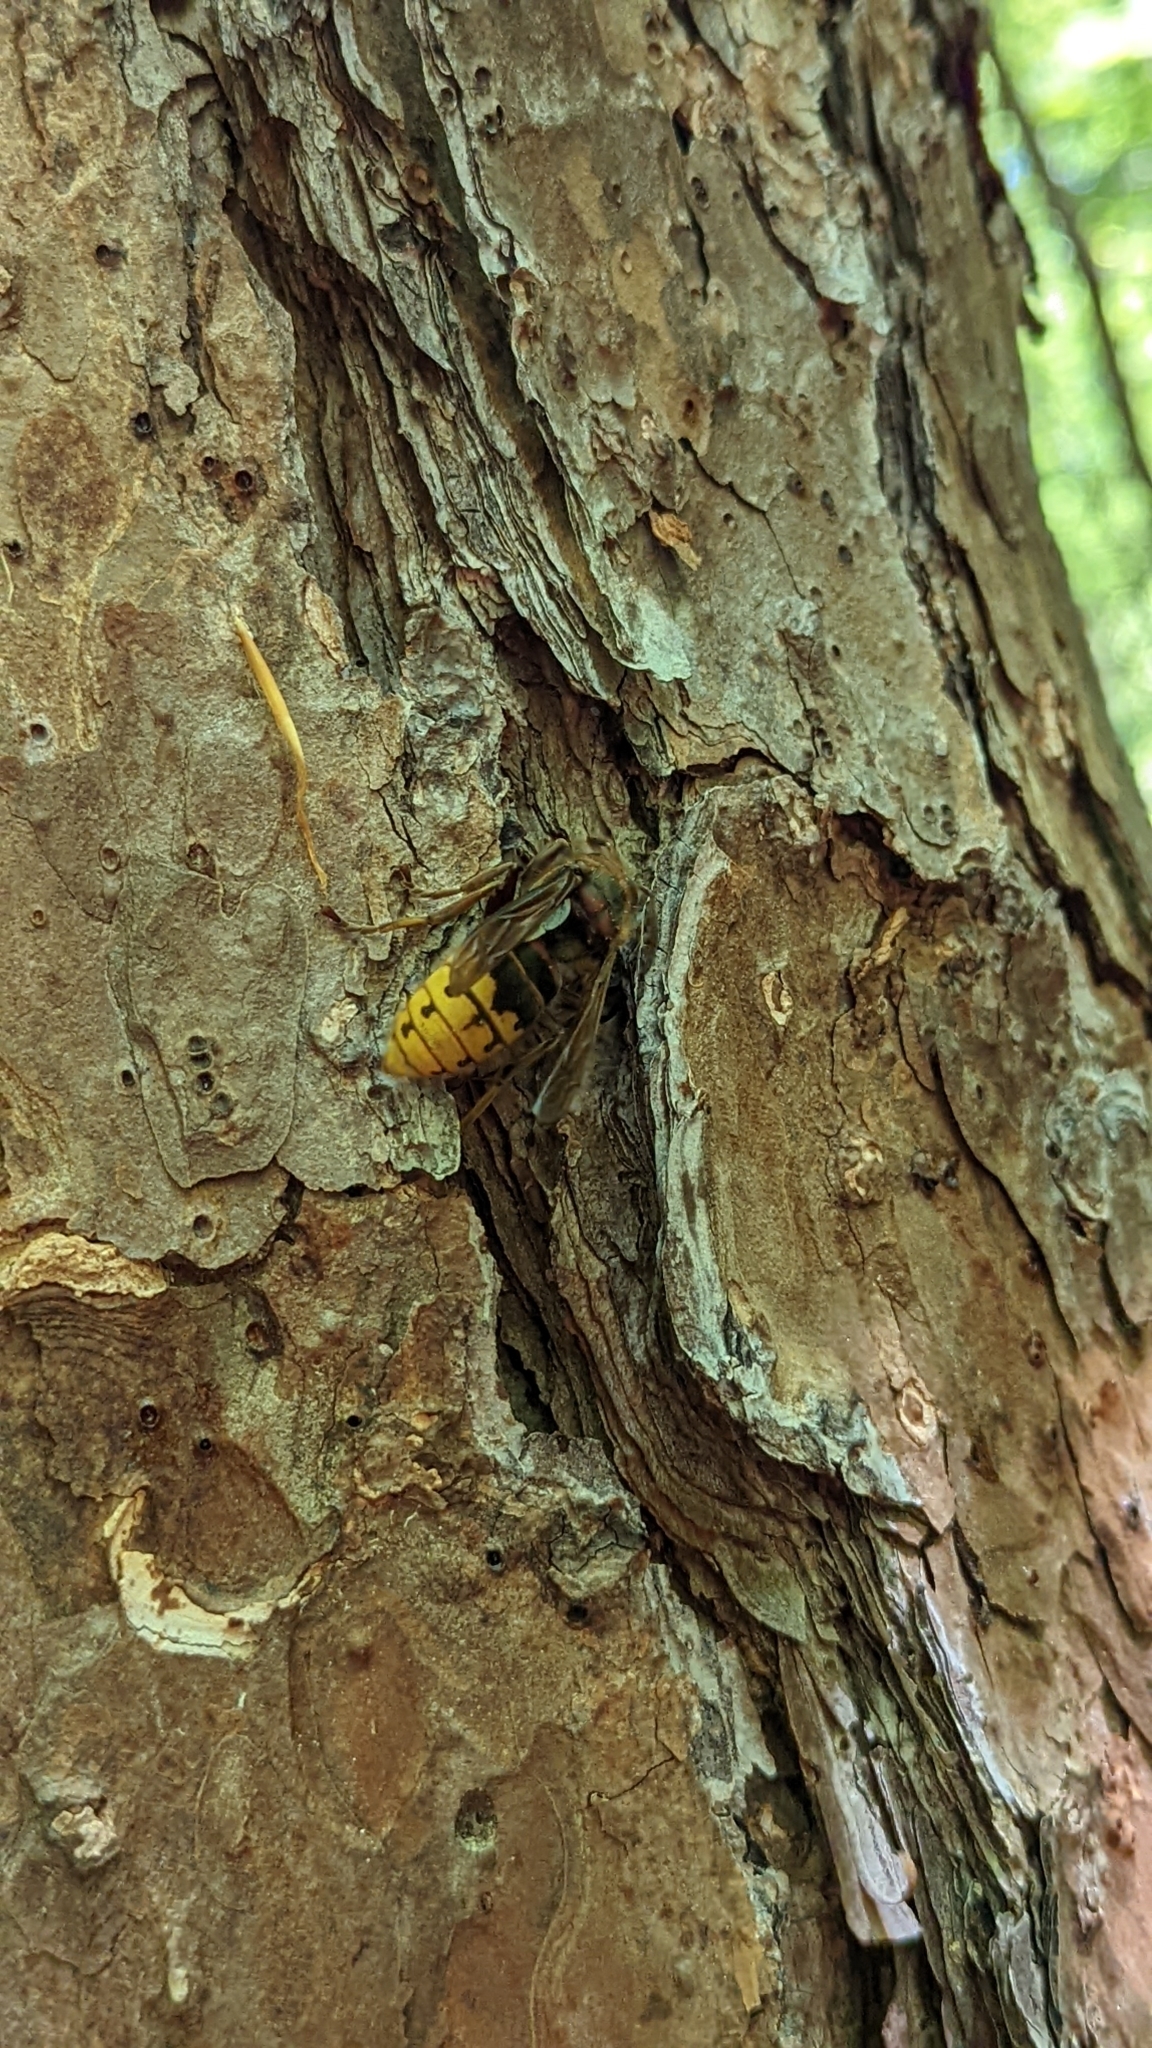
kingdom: Animalia
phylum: Arthropoda
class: Insecta
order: Hymenoptera
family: Vespidae
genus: Vespa
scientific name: Vespa crabro
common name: Hornet
